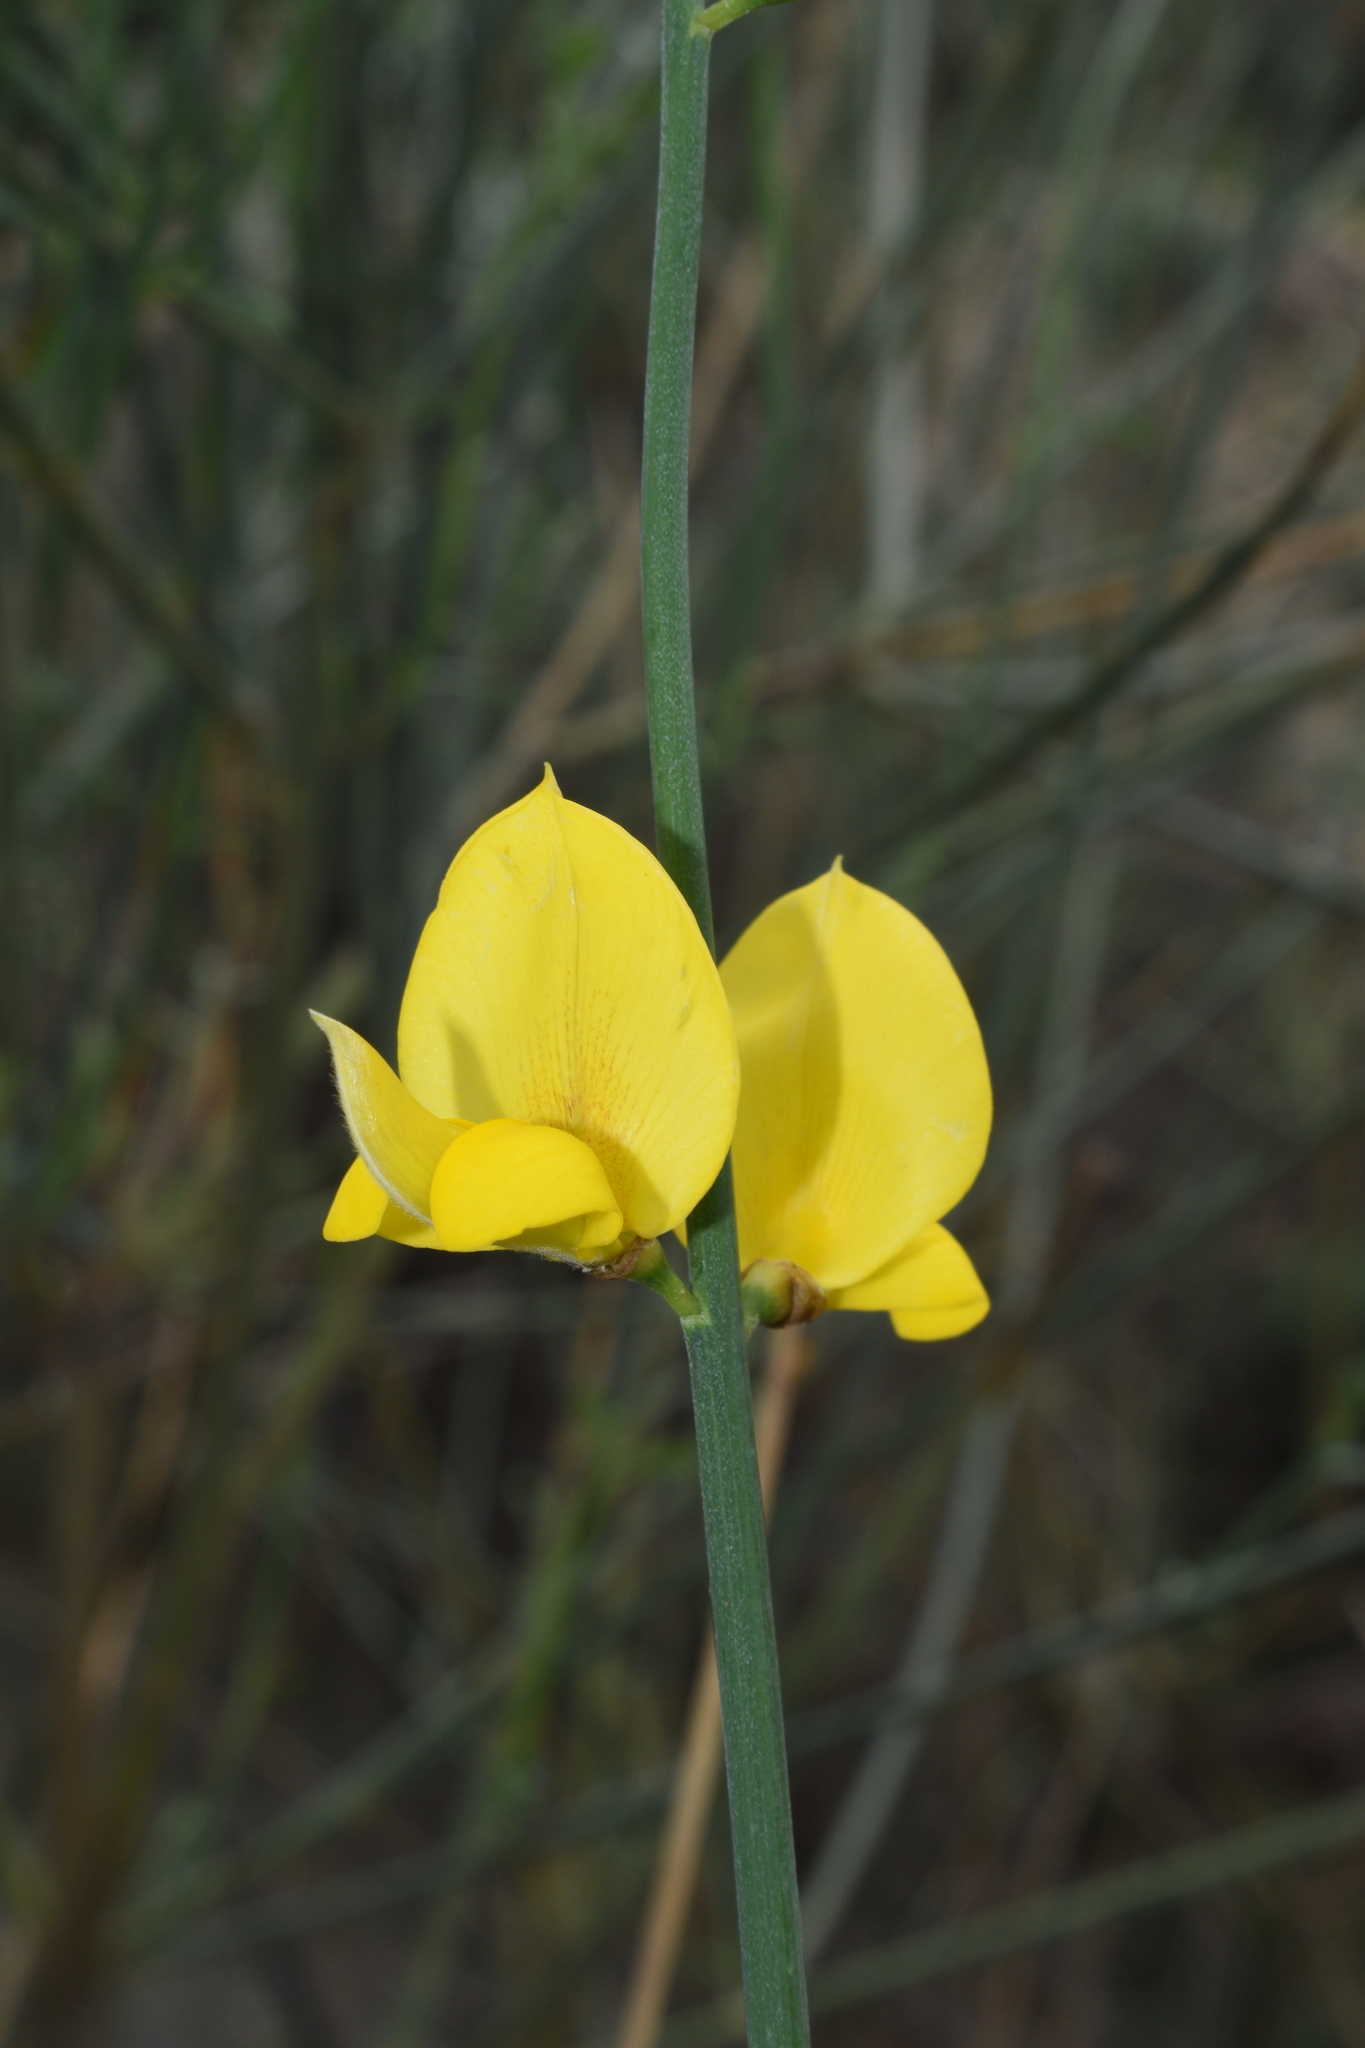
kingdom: Plantae
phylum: Tracheophyta
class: Magnoliopsida
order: Fabales
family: Fabaceae
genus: Spartium
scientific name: Spartium junceum
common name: Spanish broom
